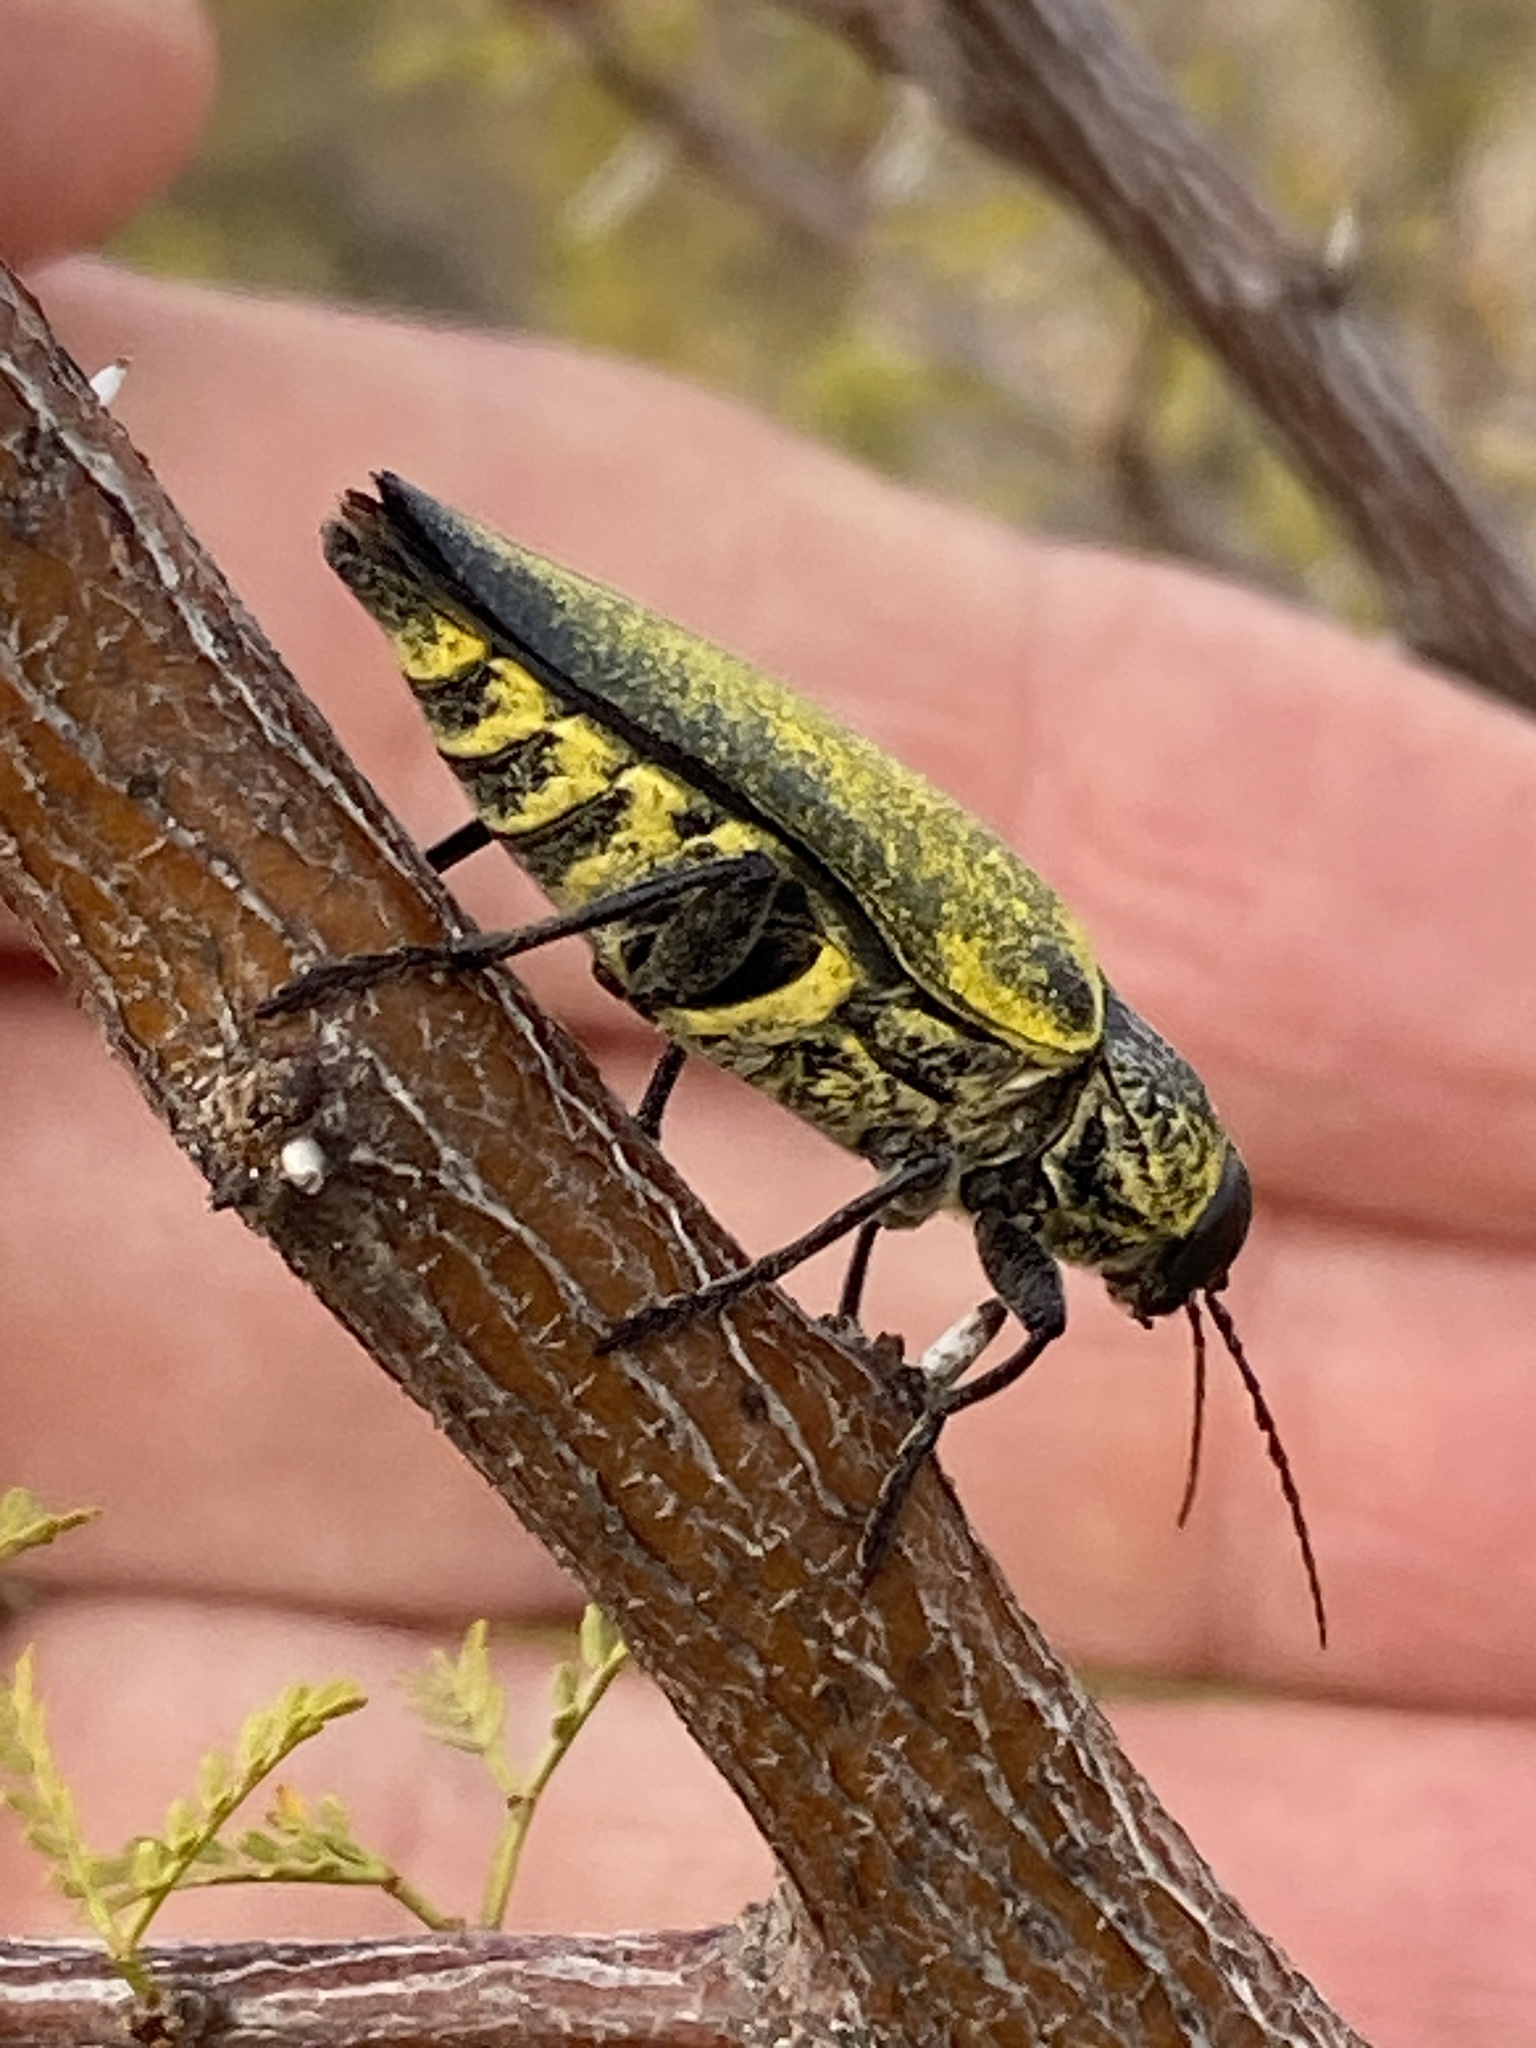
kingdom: Animalia
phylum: Arthropoda
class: Insecta
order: Coleoptera
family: Buprestidae
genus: Gyascutus
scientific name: Gyascutus caelatus
